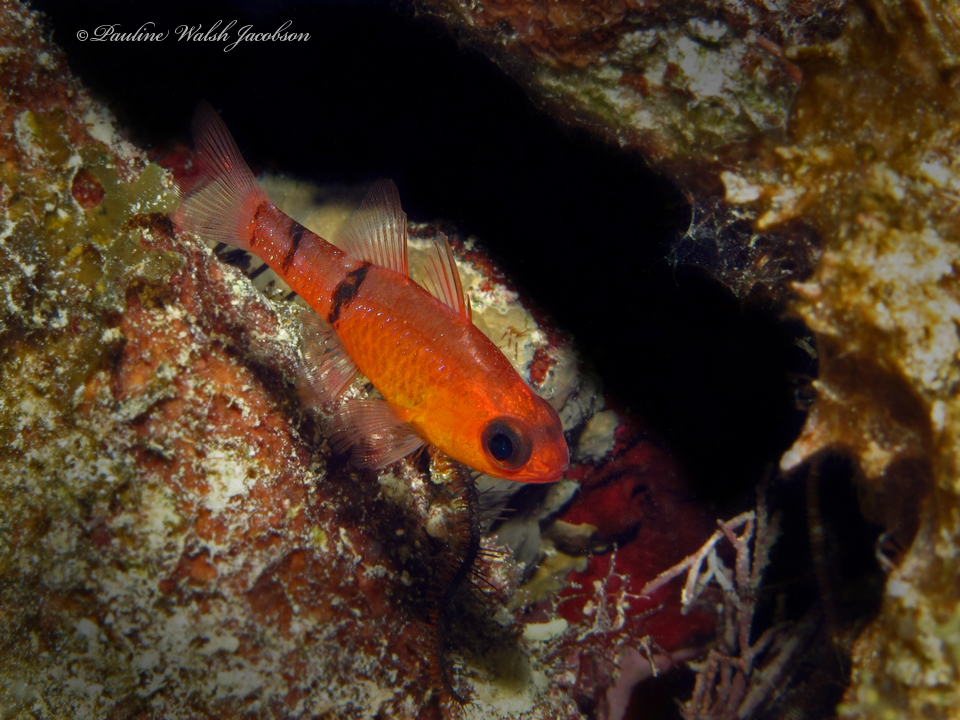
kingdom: Animalia
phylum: Chordata
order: Perciformes
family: Apogonidae
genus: Apogon
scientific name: Apogon townsendi
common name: Belted cardinalfish
